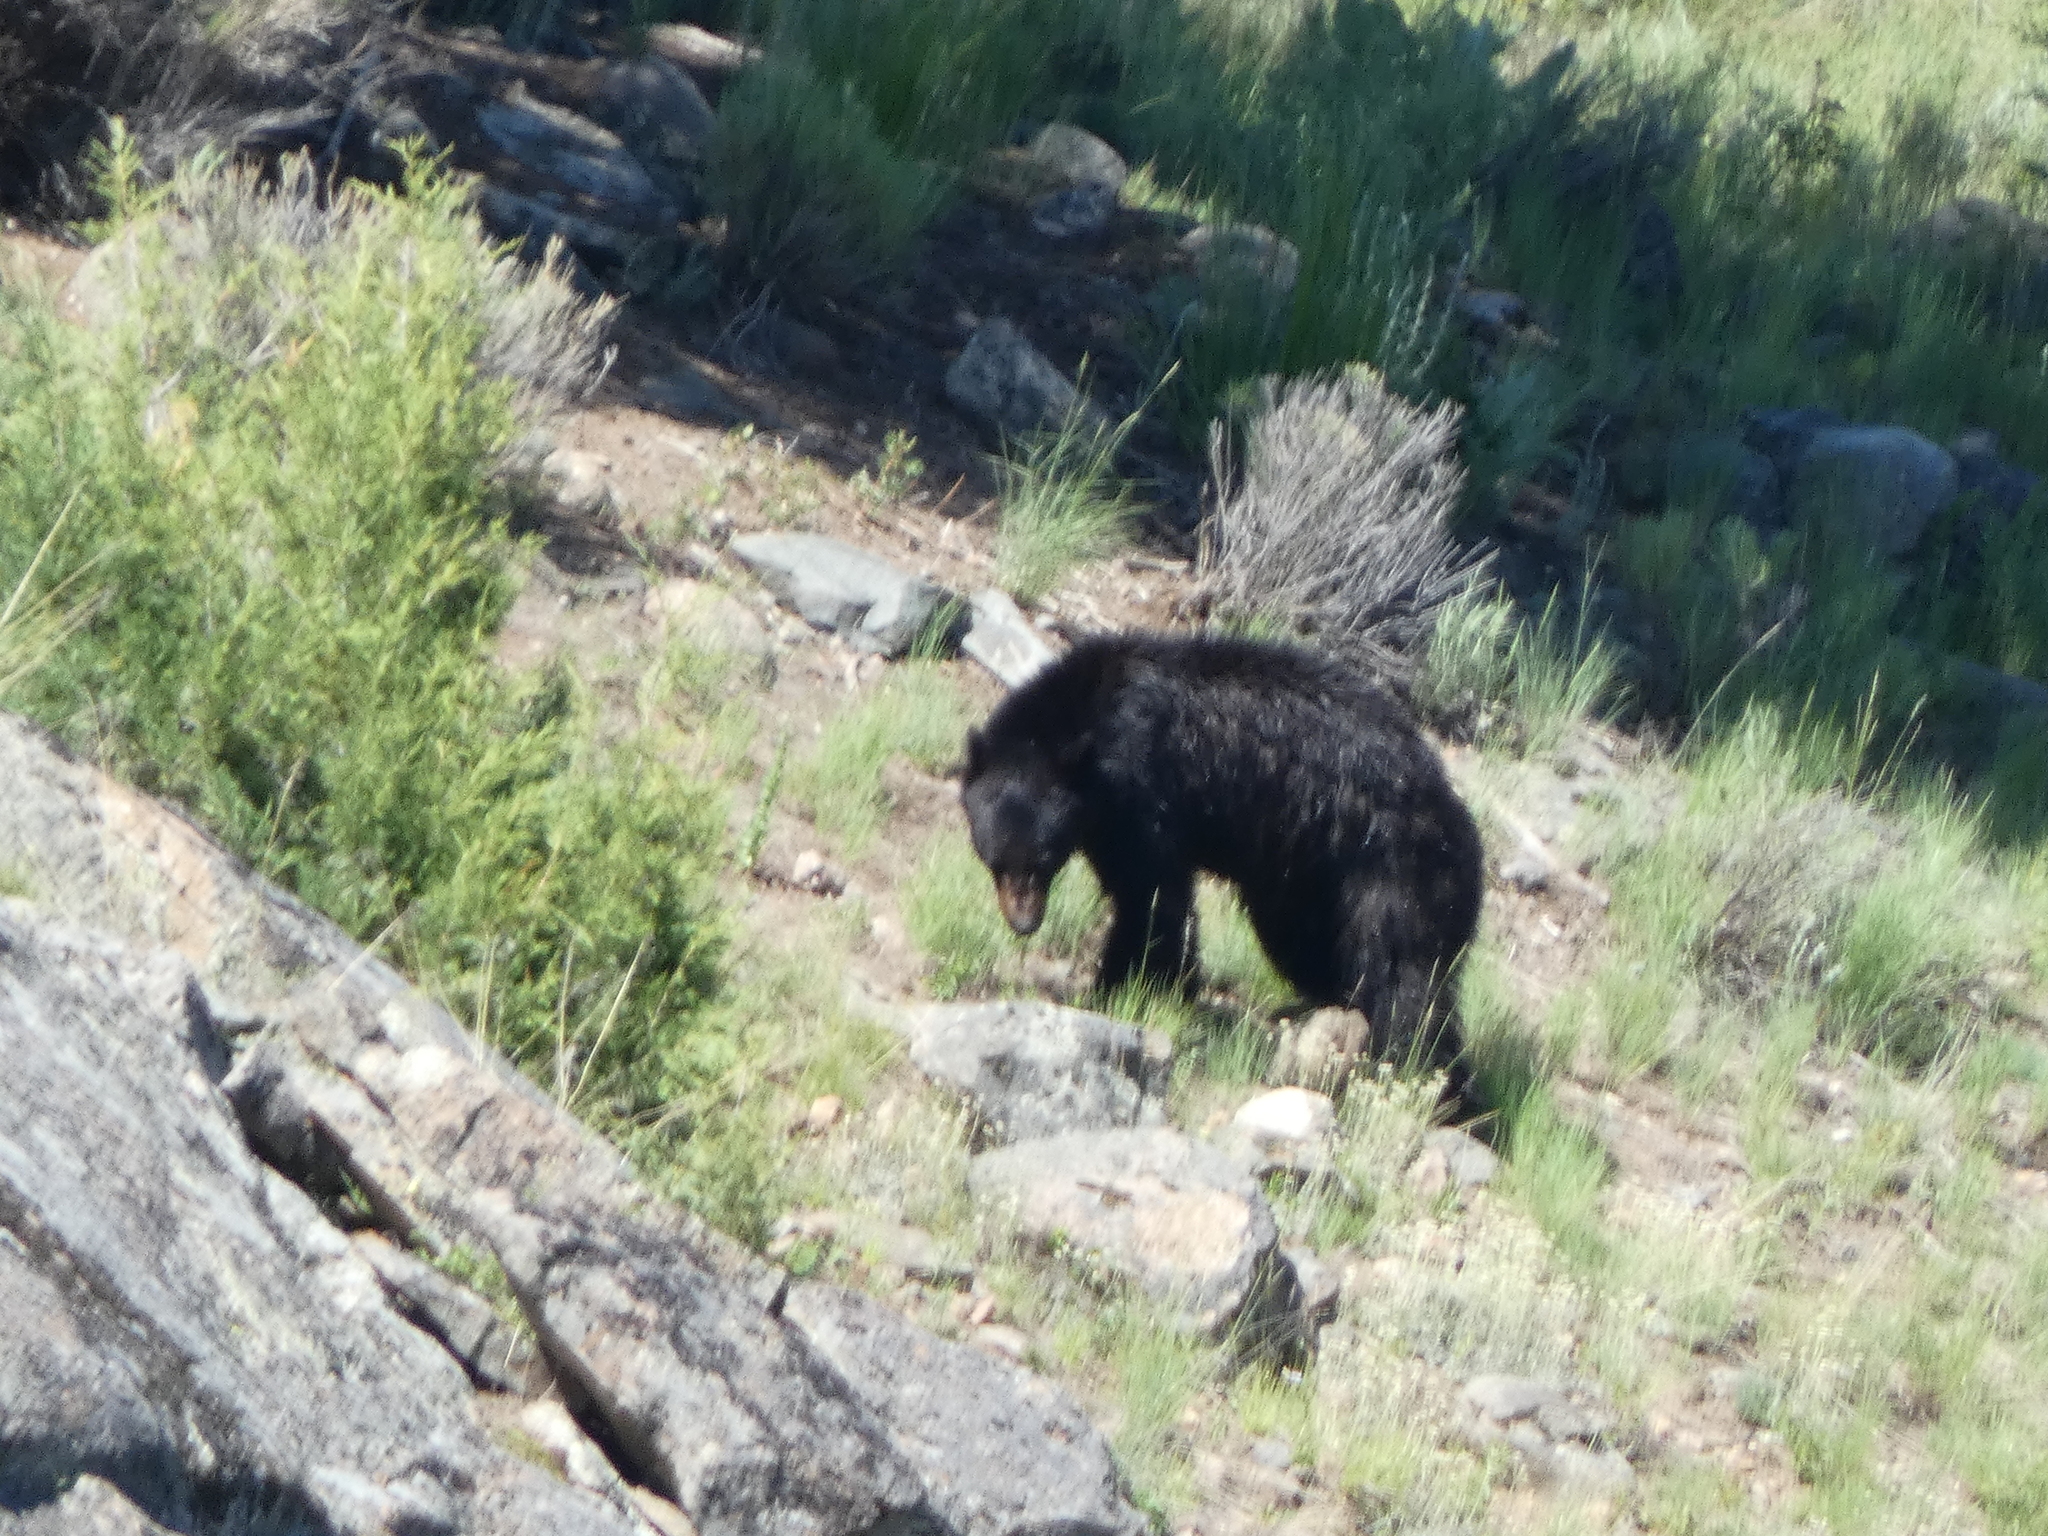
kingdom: Animalia
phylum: Chordata
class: Mammalia
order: Carnivora
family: Ursidae
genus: Ursus
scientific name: Ursus americanus
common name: American black bear
